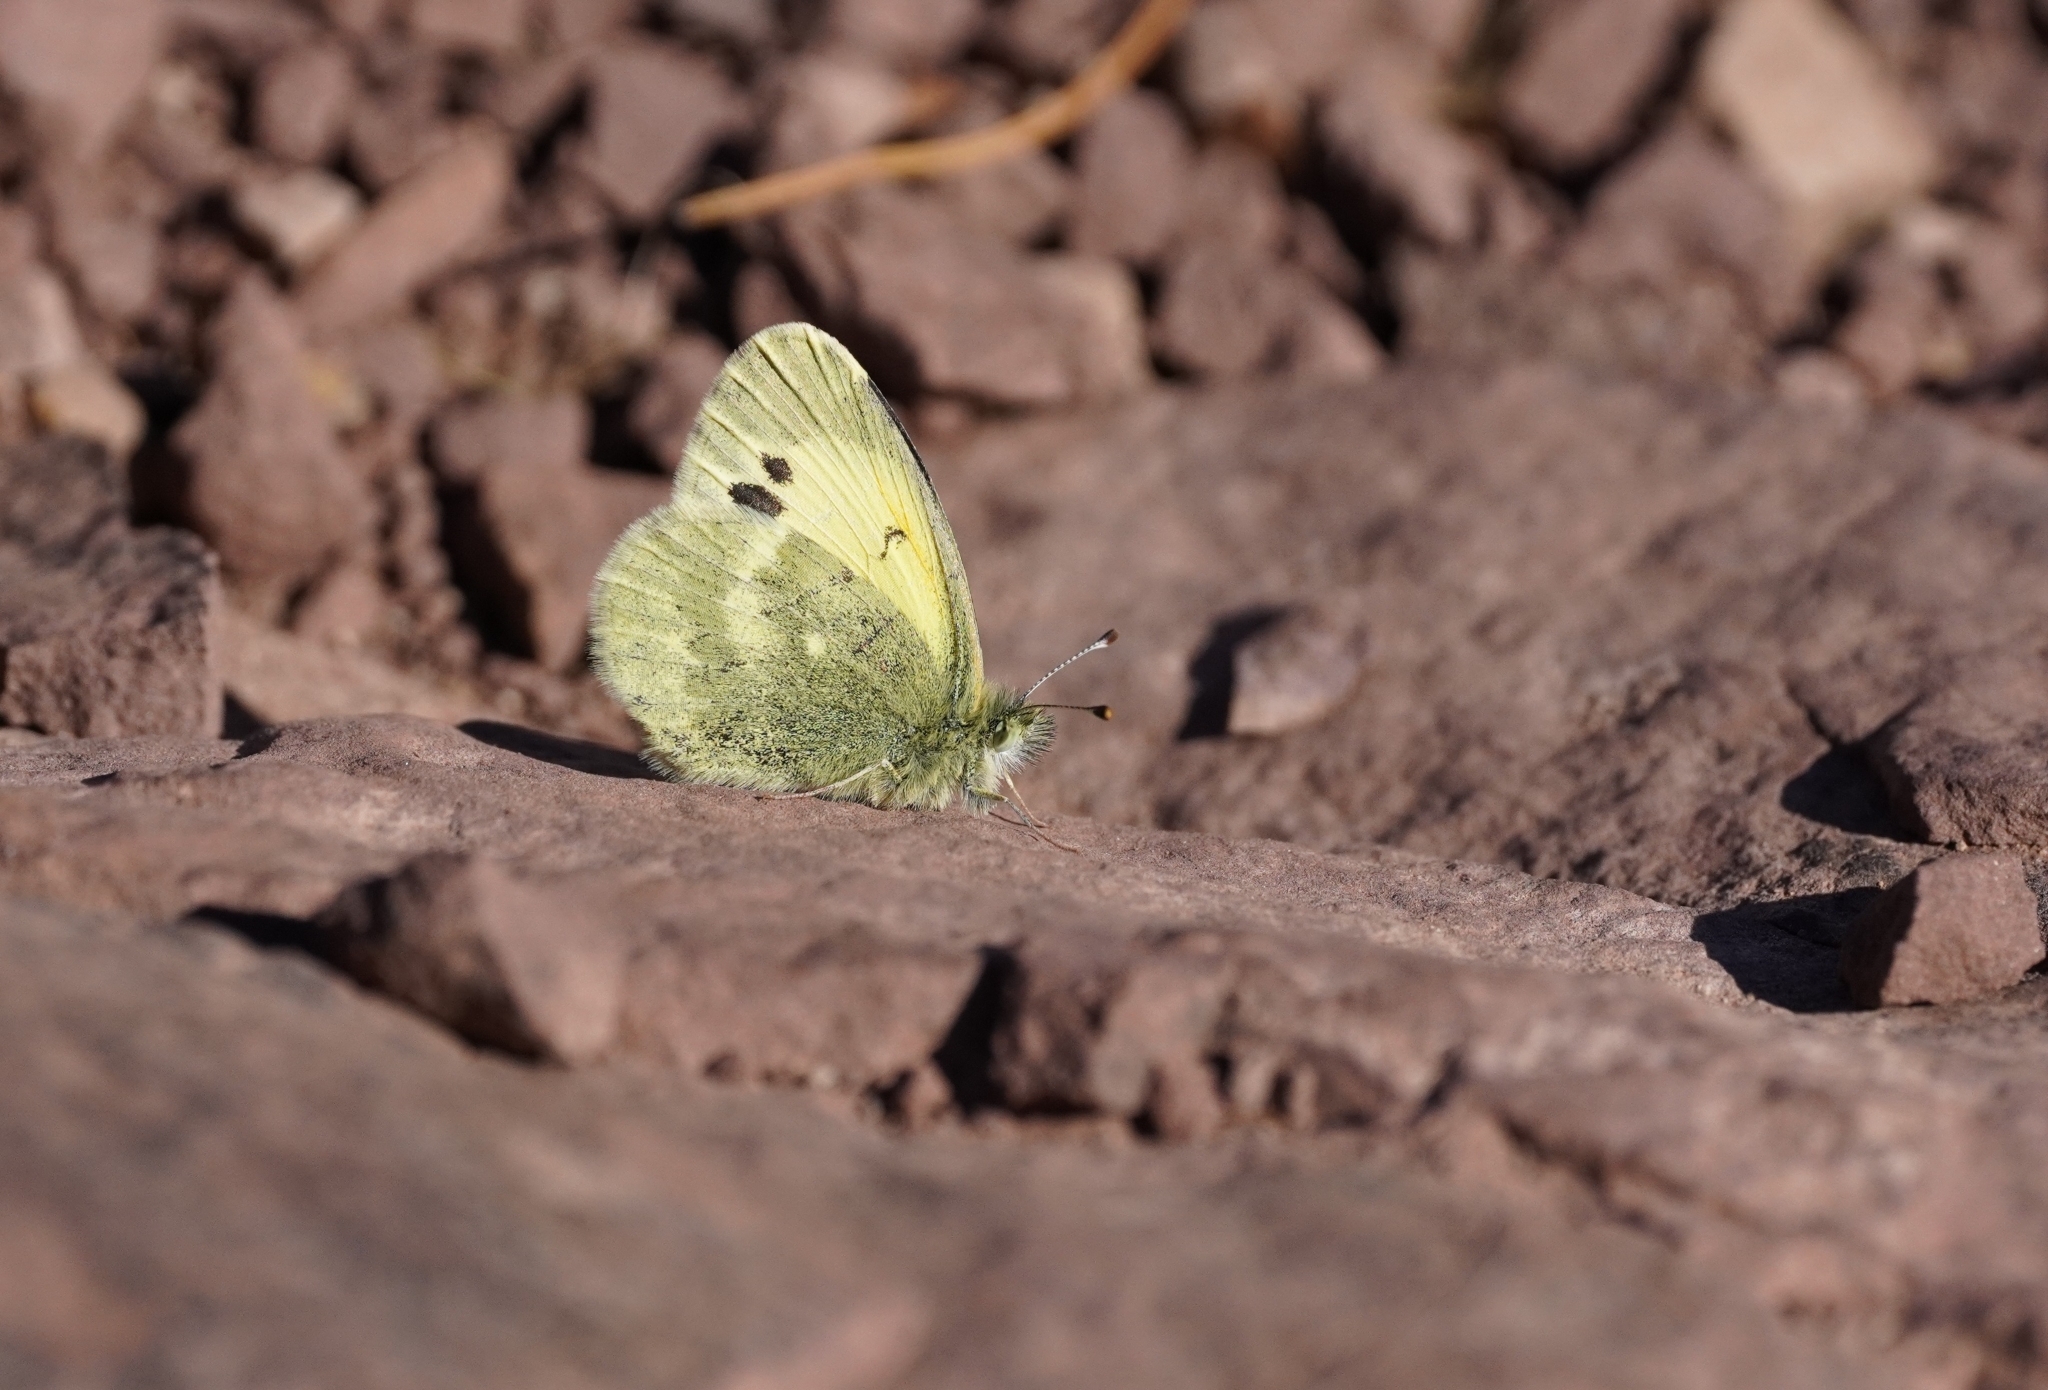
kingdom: Animalia
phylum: Arthropoda
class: Insecta
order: Lepidoptera
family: Pieridae
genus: Nathalis
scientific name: Nathalis iole
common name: Dainty sulphur
